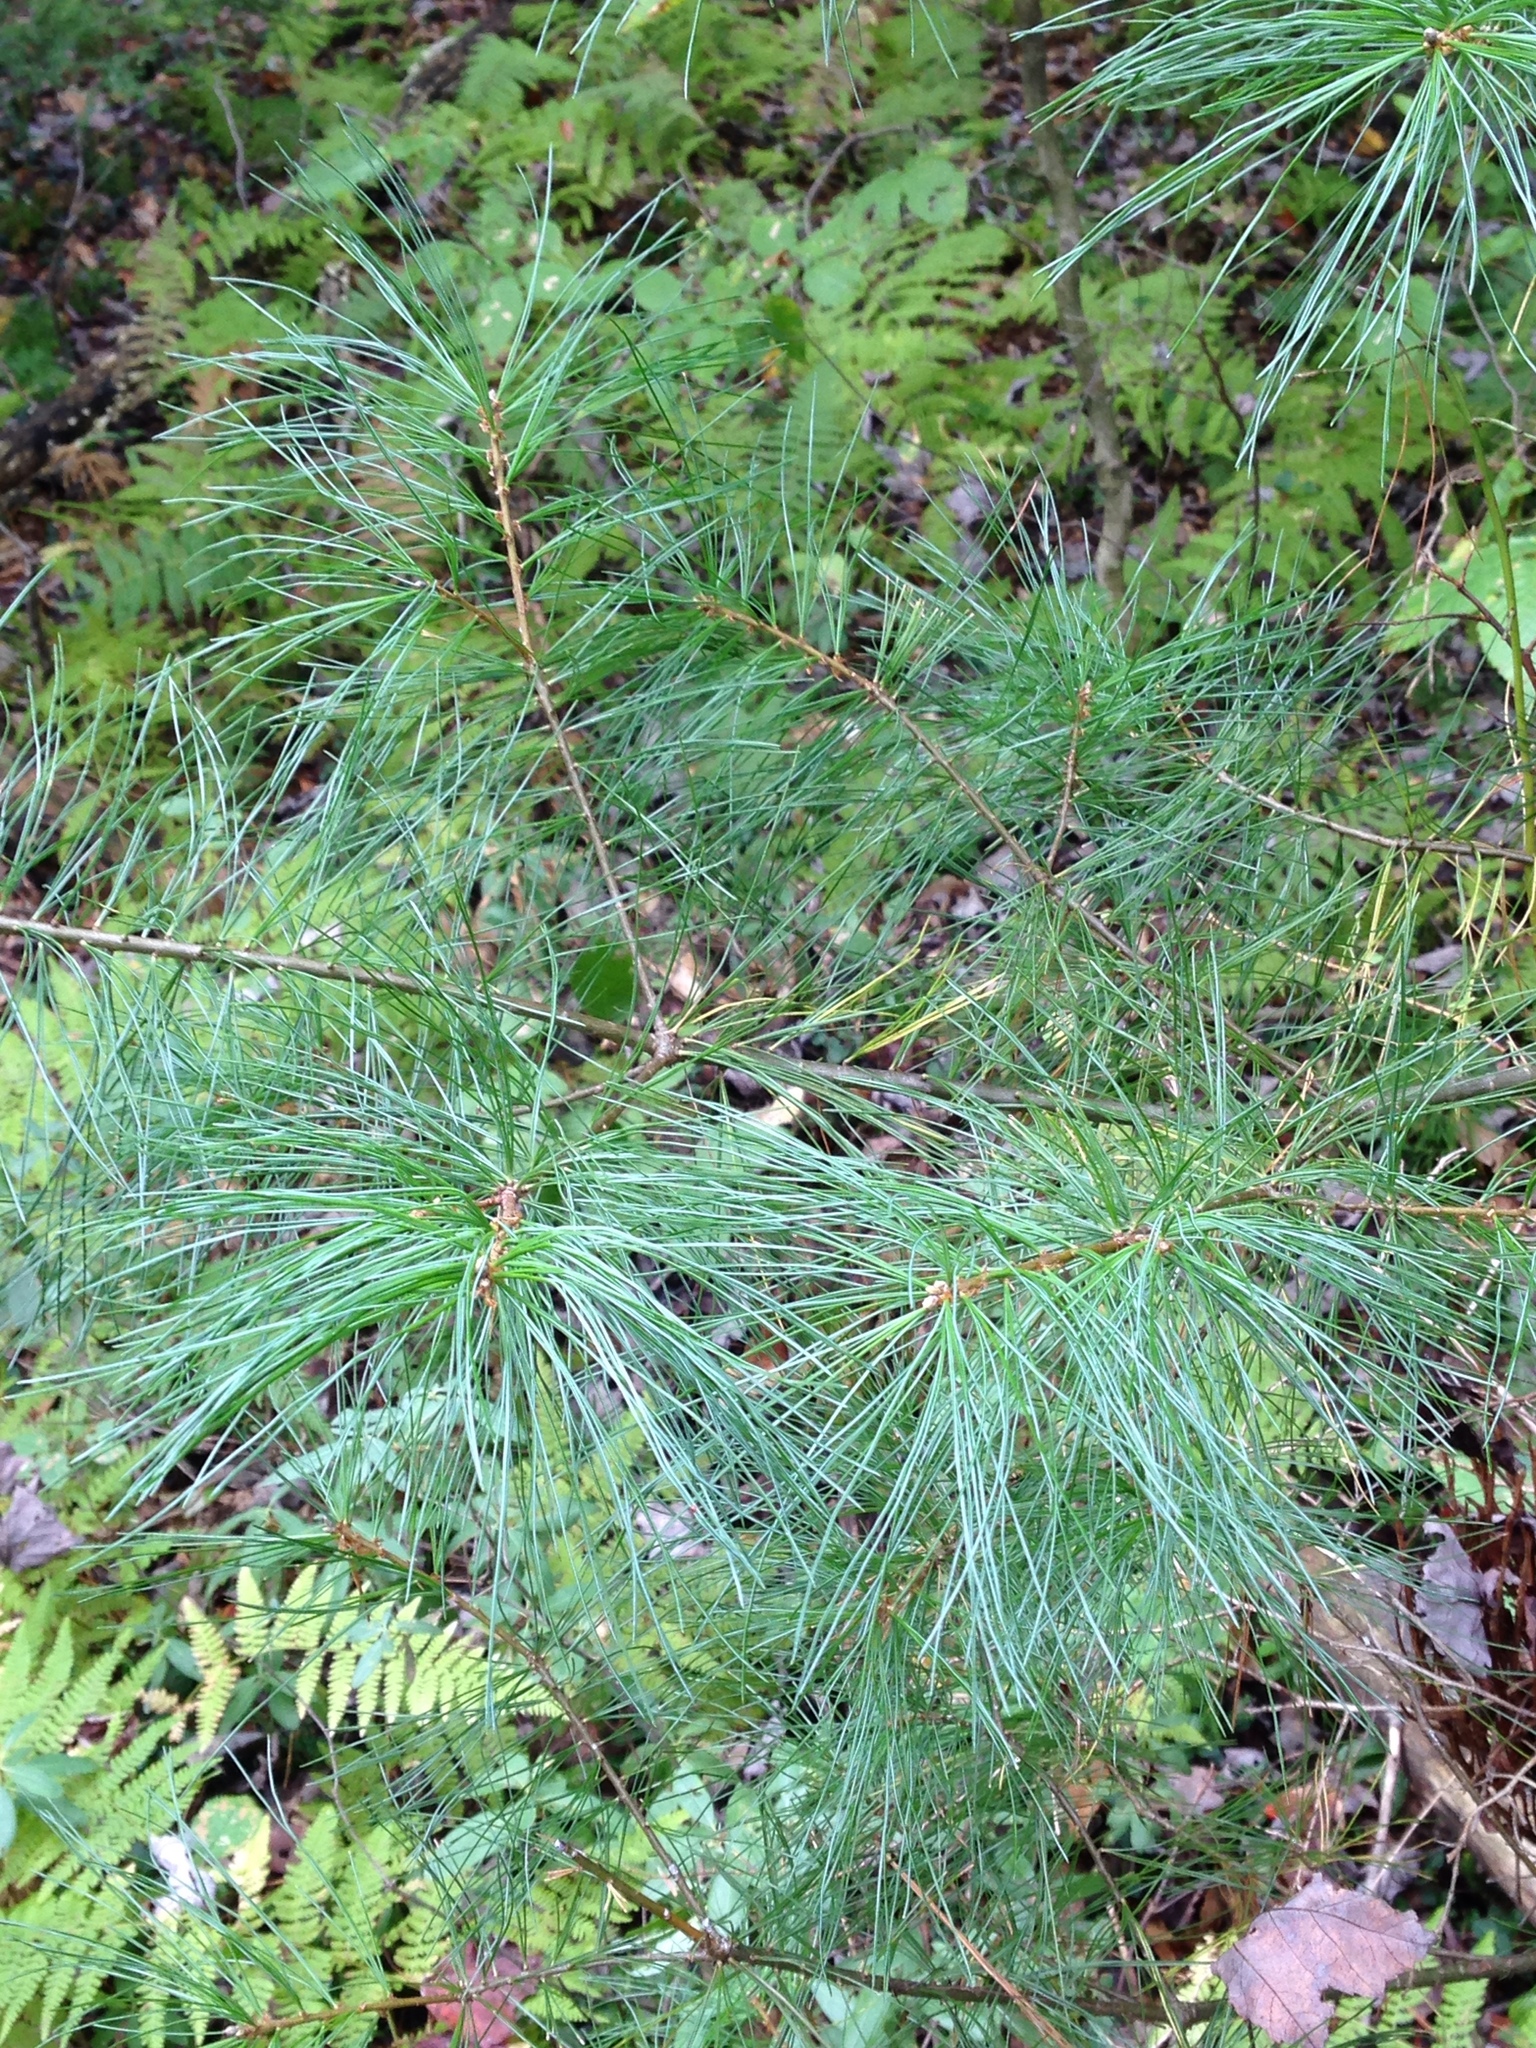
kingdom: Plantae
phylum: Tracheophyta
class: Pinopsida
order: Pinales
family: Pinaceae
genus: Pinus
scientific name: Pinus strobus
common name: Weymouth pine
